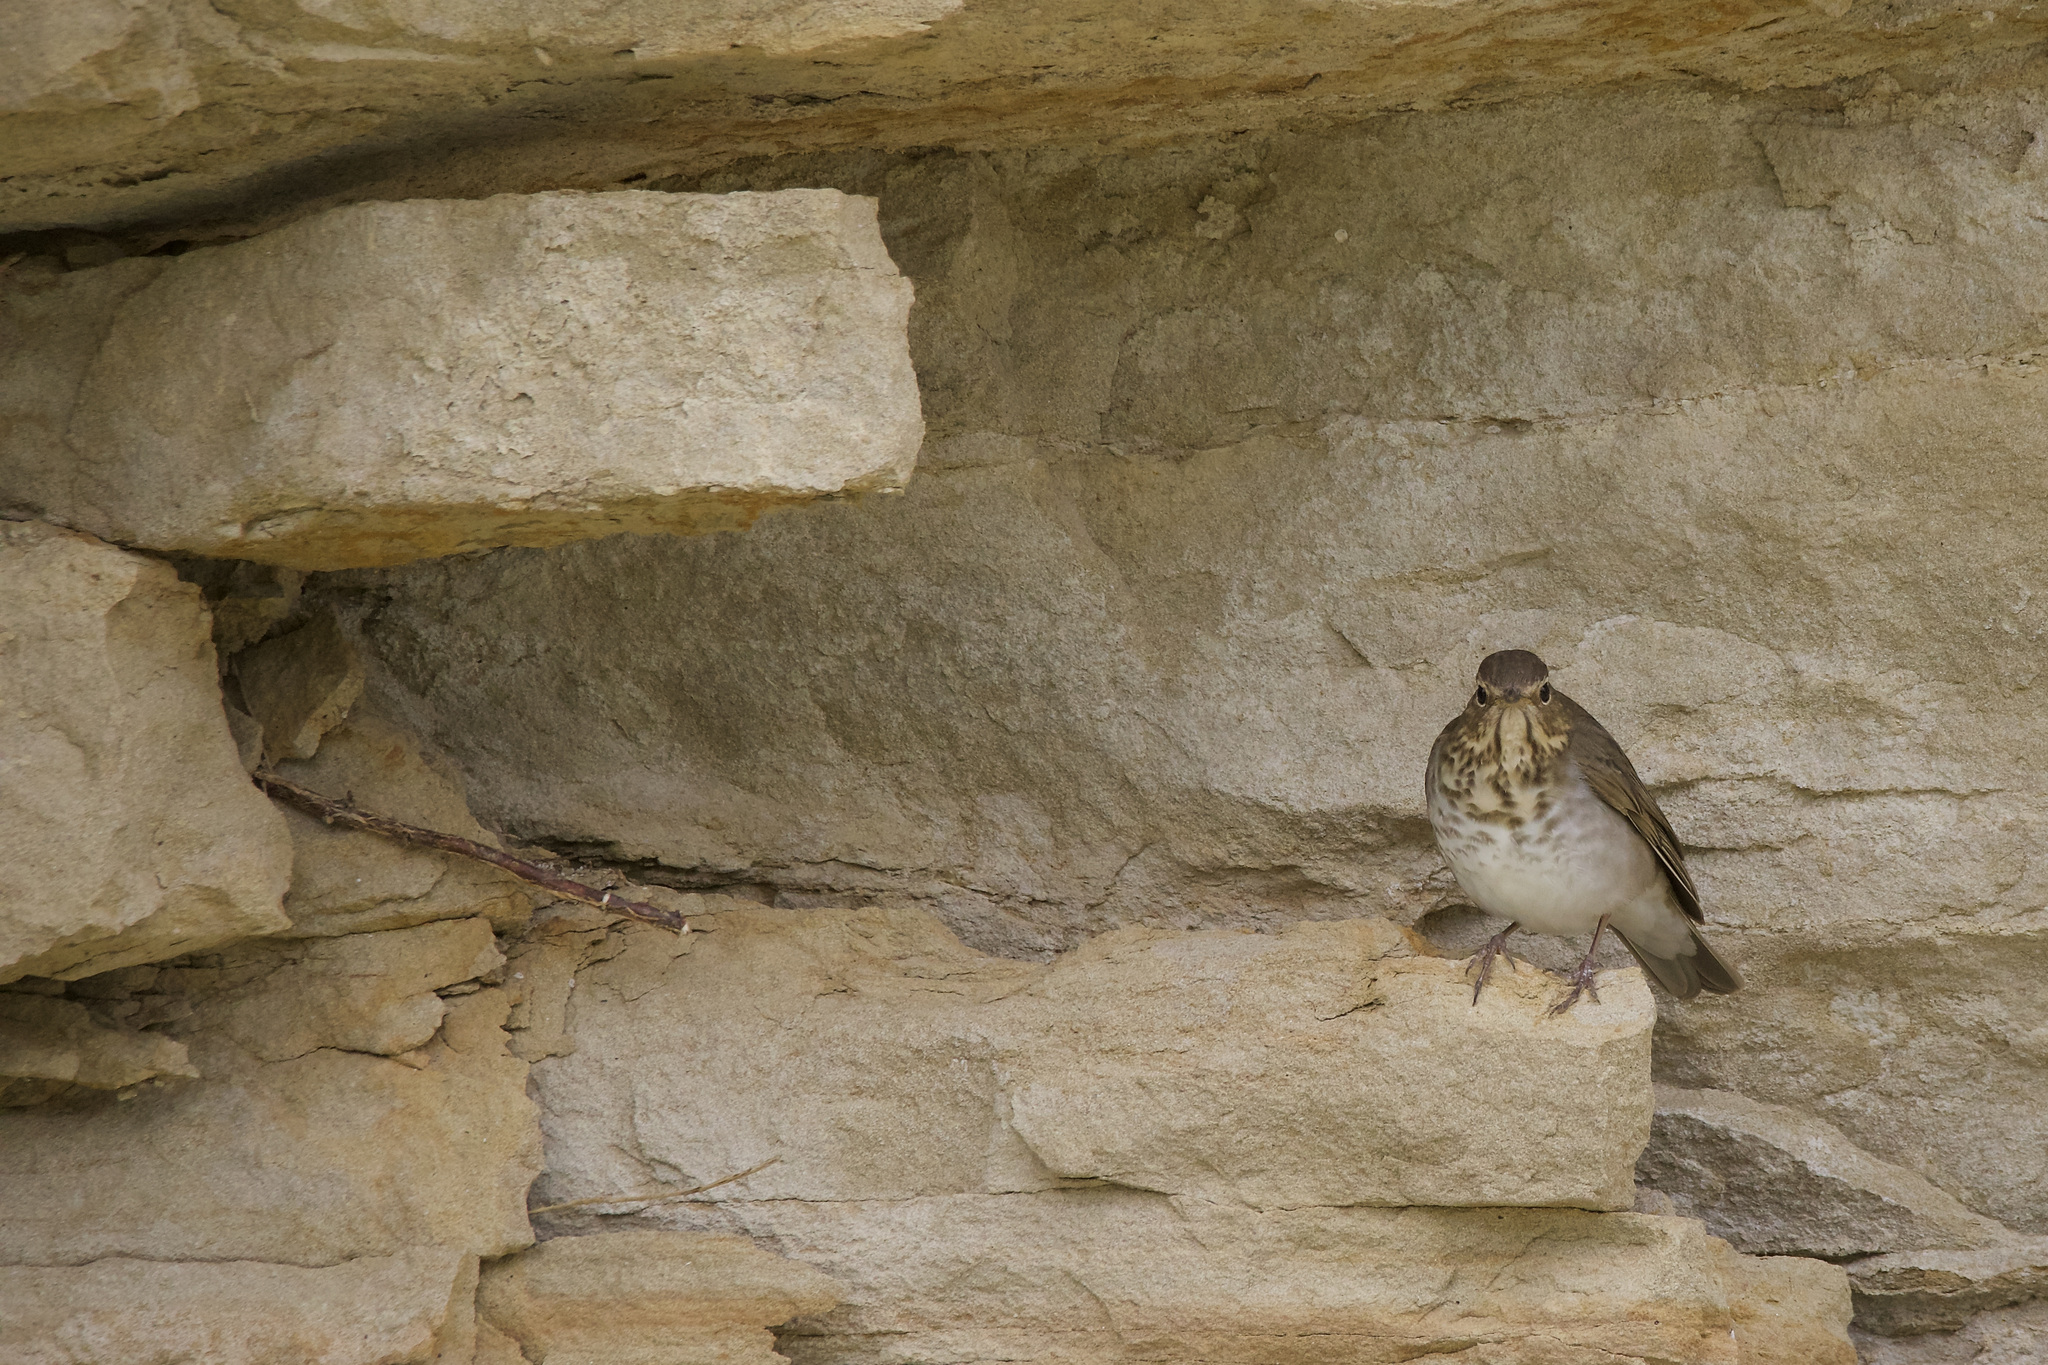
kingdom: Animalia
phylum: Chordata
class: Aves
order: Passeriformes
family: Turdidae
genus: Catharus
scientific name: Catharus ustulatus
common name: Swainson's thrush
